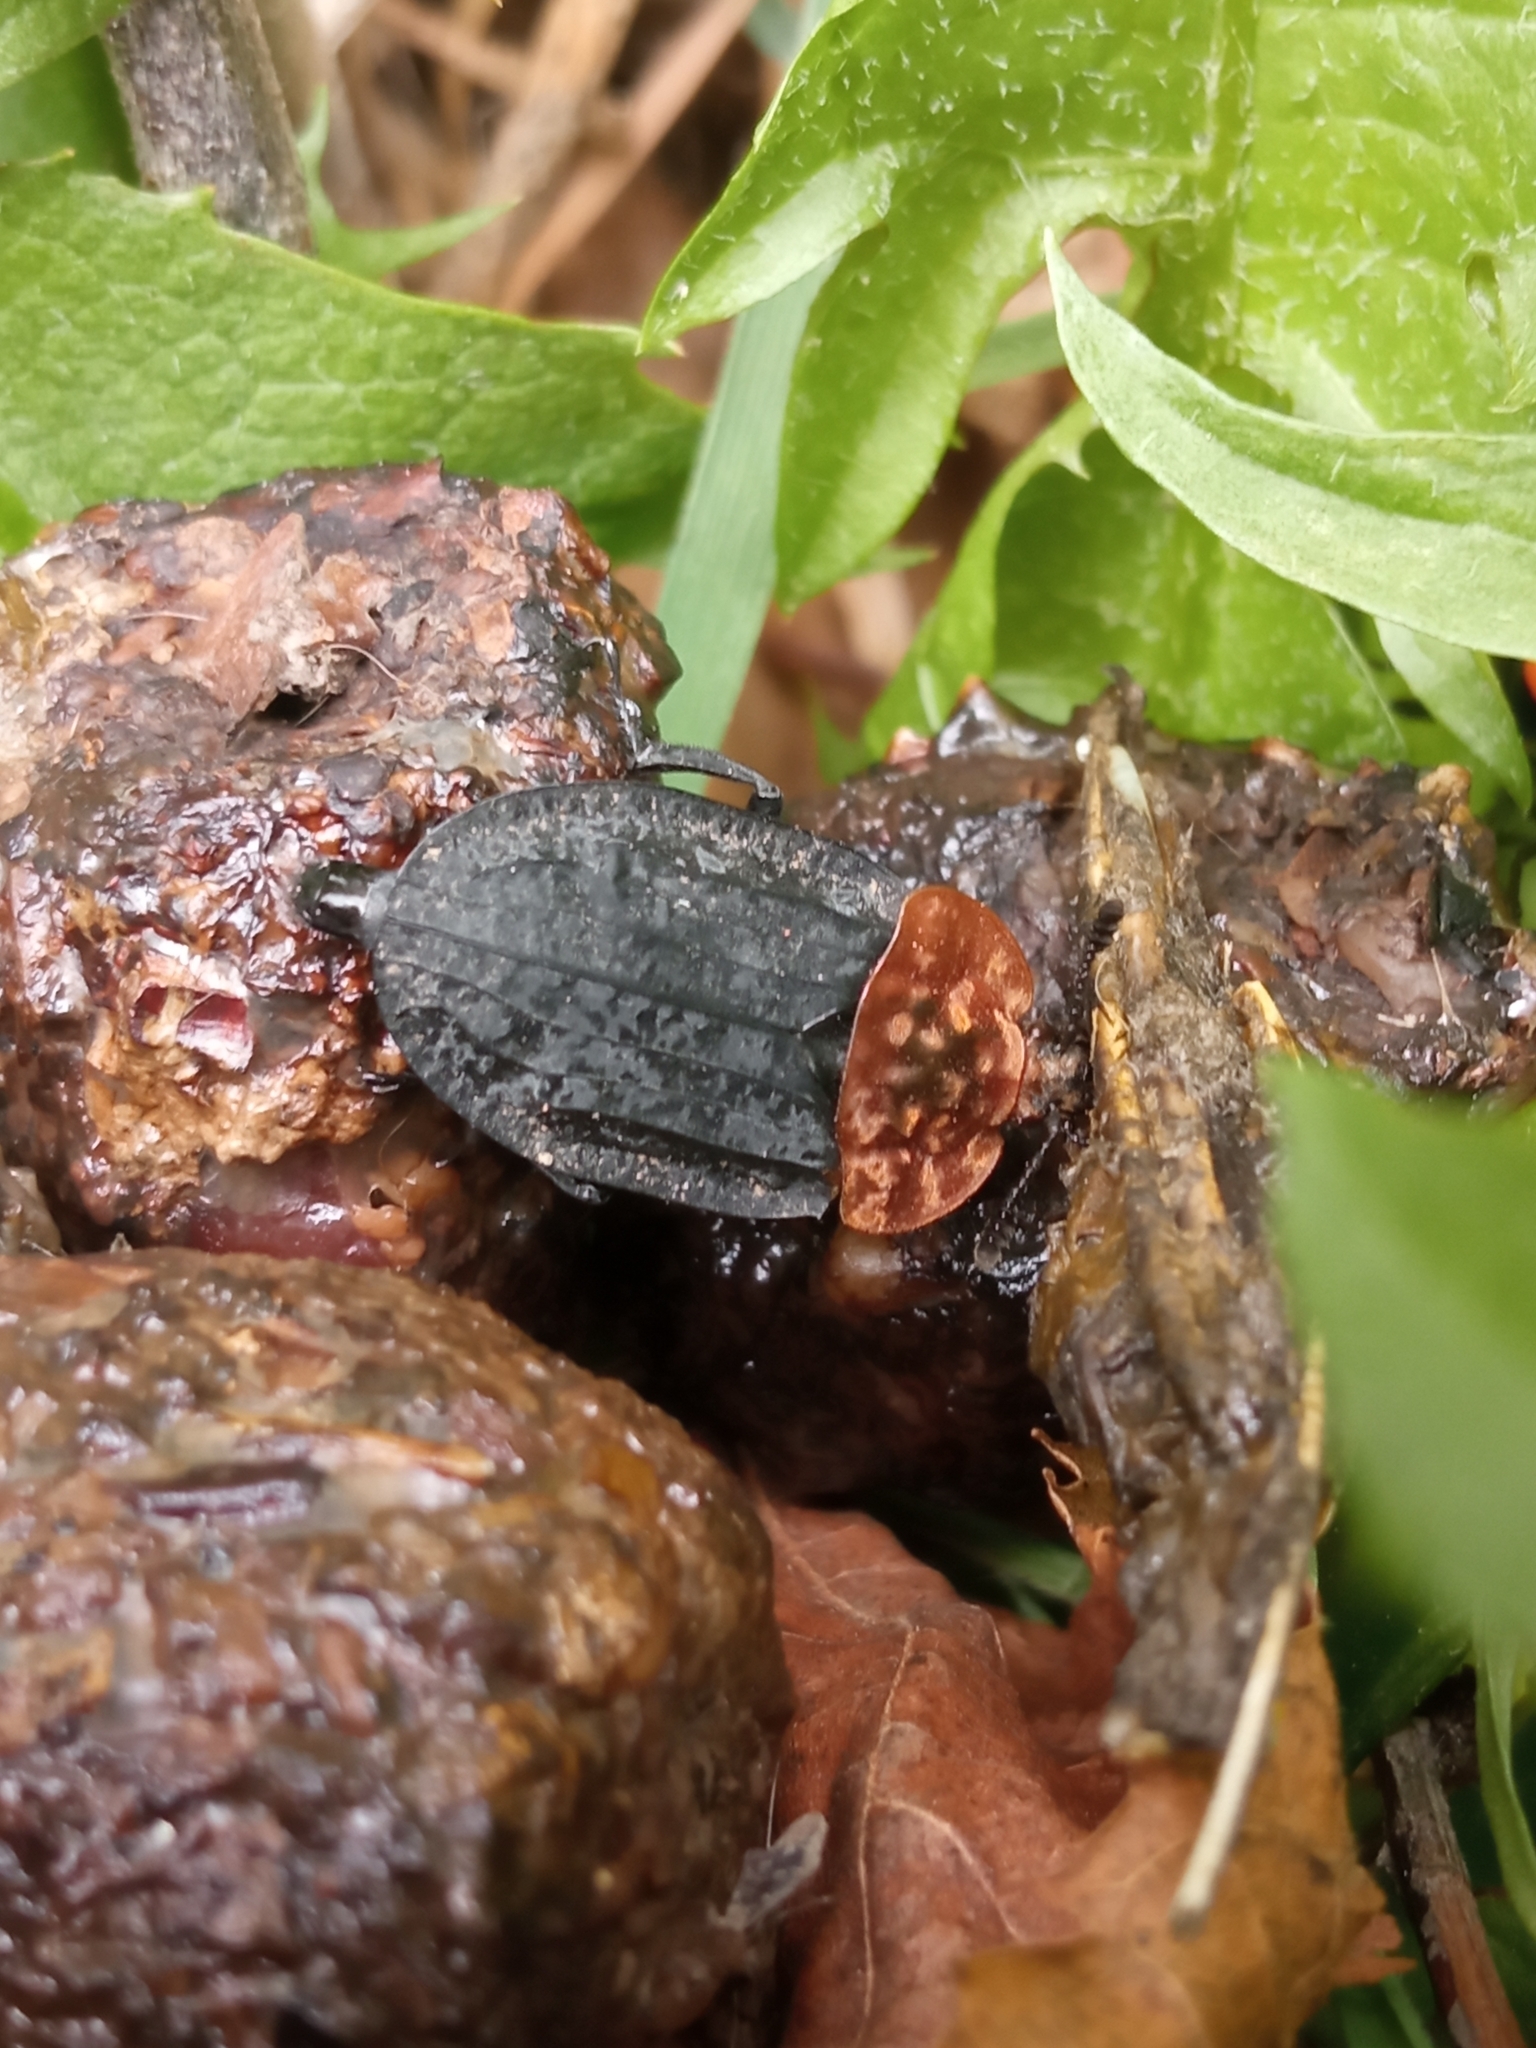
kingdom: Animalia
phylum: Arthropoda
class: Insecta
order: Coleoptera
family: Staphylinidae
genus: Oiceoptoma
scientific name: Oiceoptoma thoracicum
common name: Red-breasted carrion beetle
